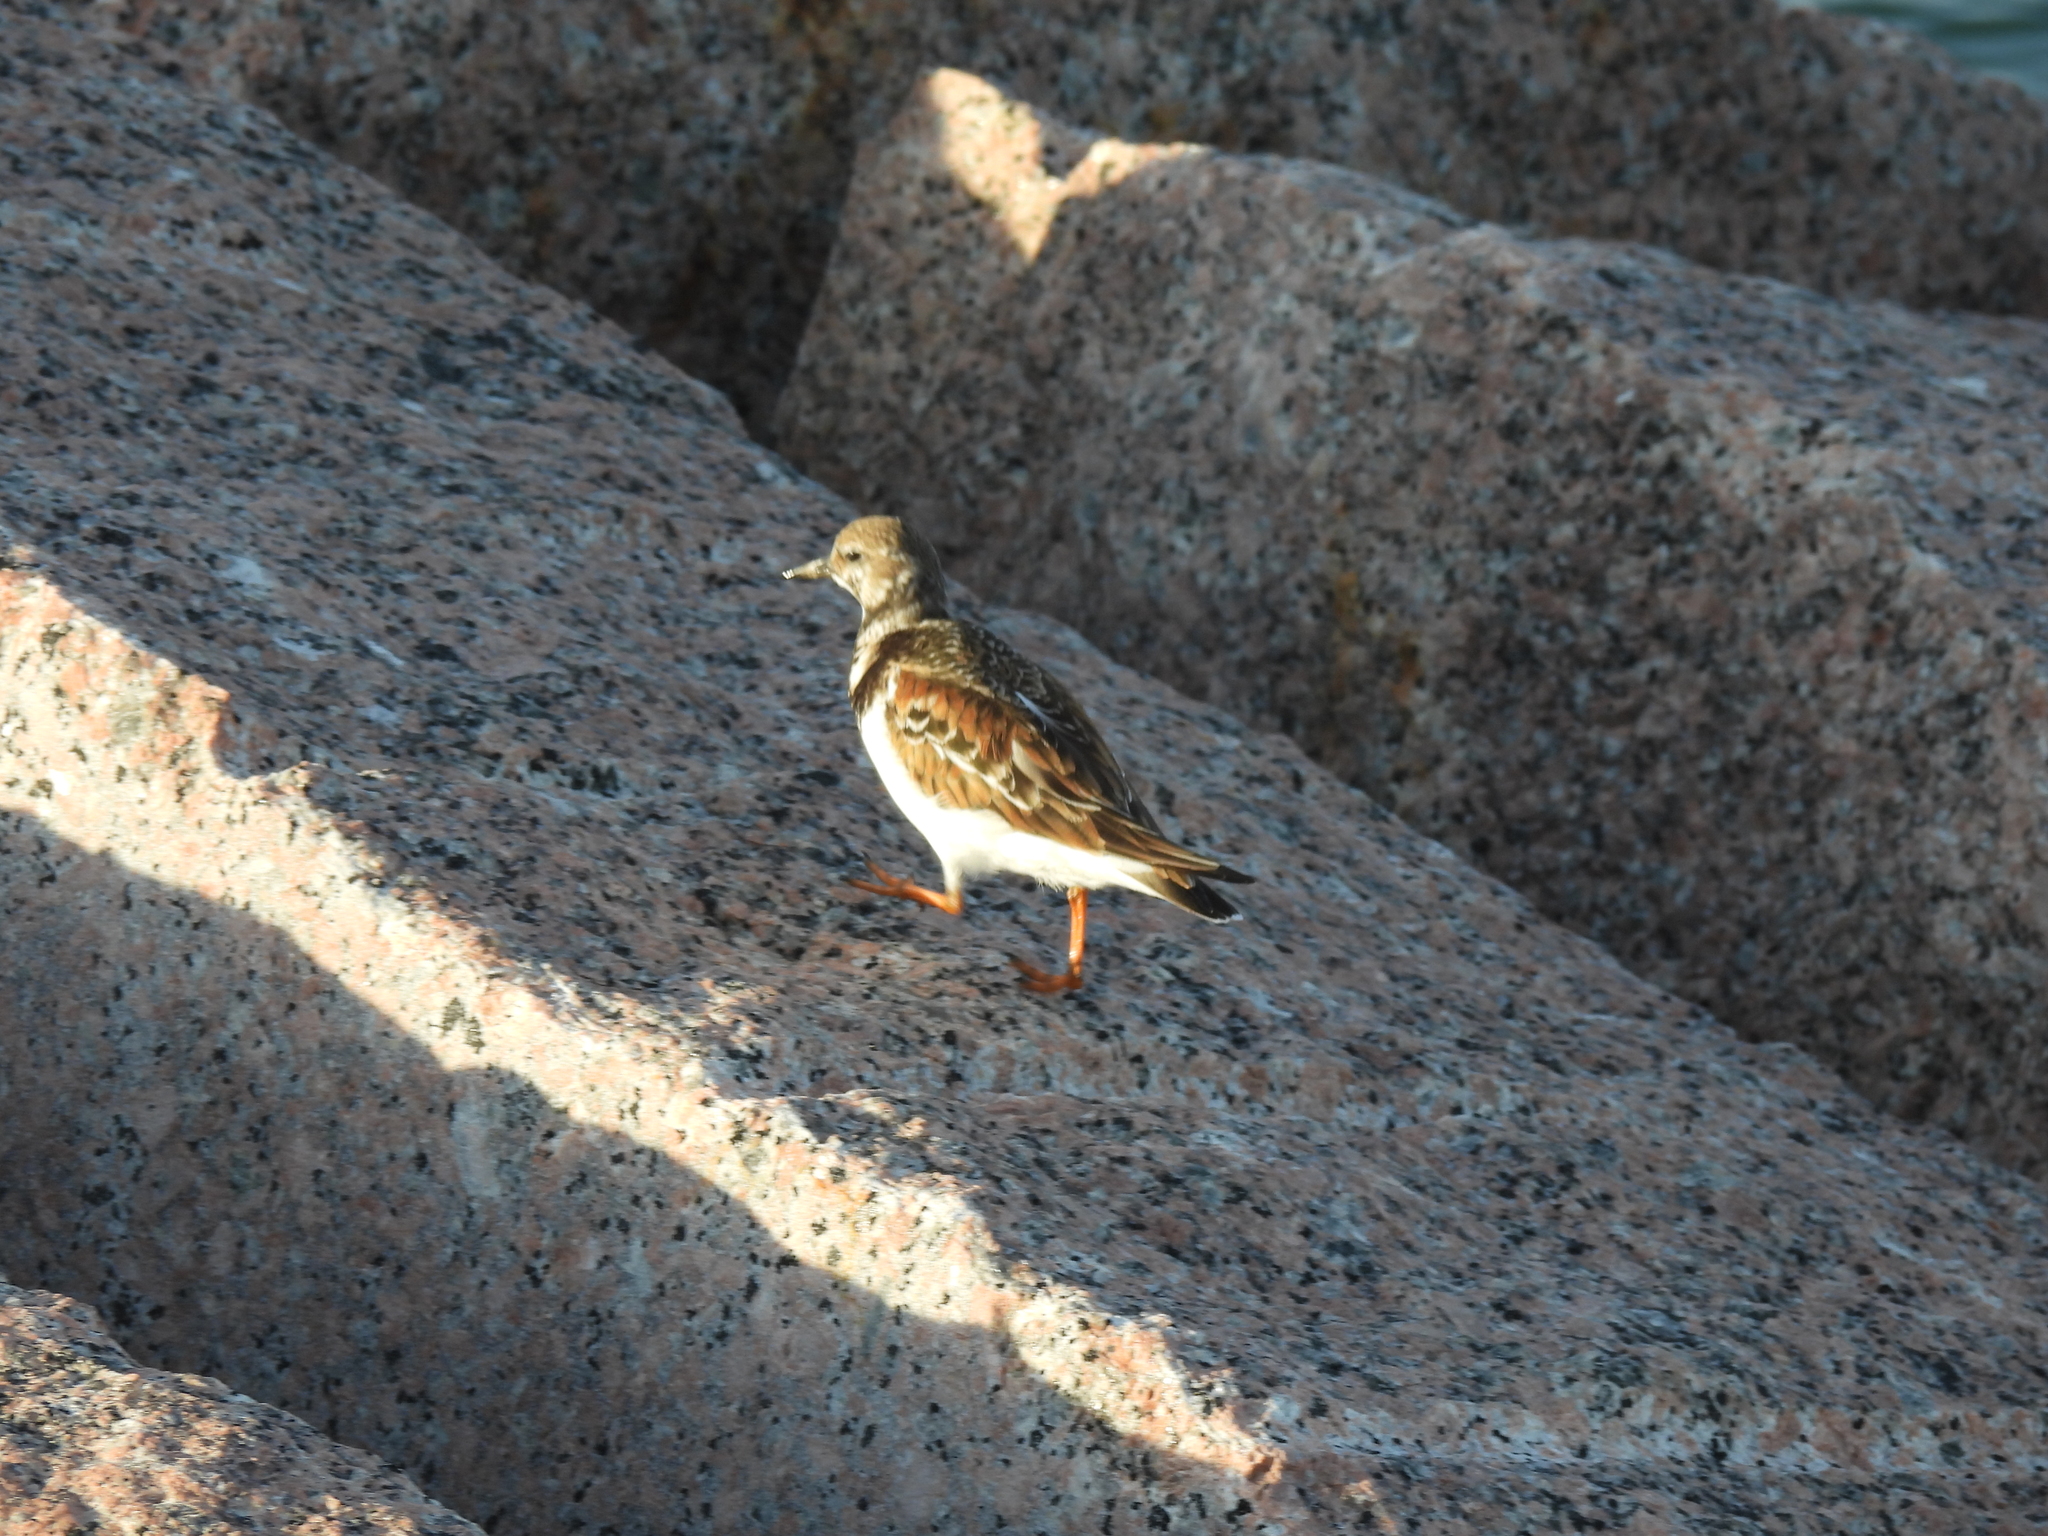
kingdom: Animalia
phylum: Chordata
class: Aves
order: Charadriiformes
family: Scolopacidae
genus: Arenaria
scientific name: Arenaria interpres
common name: Ruddy turnstone
